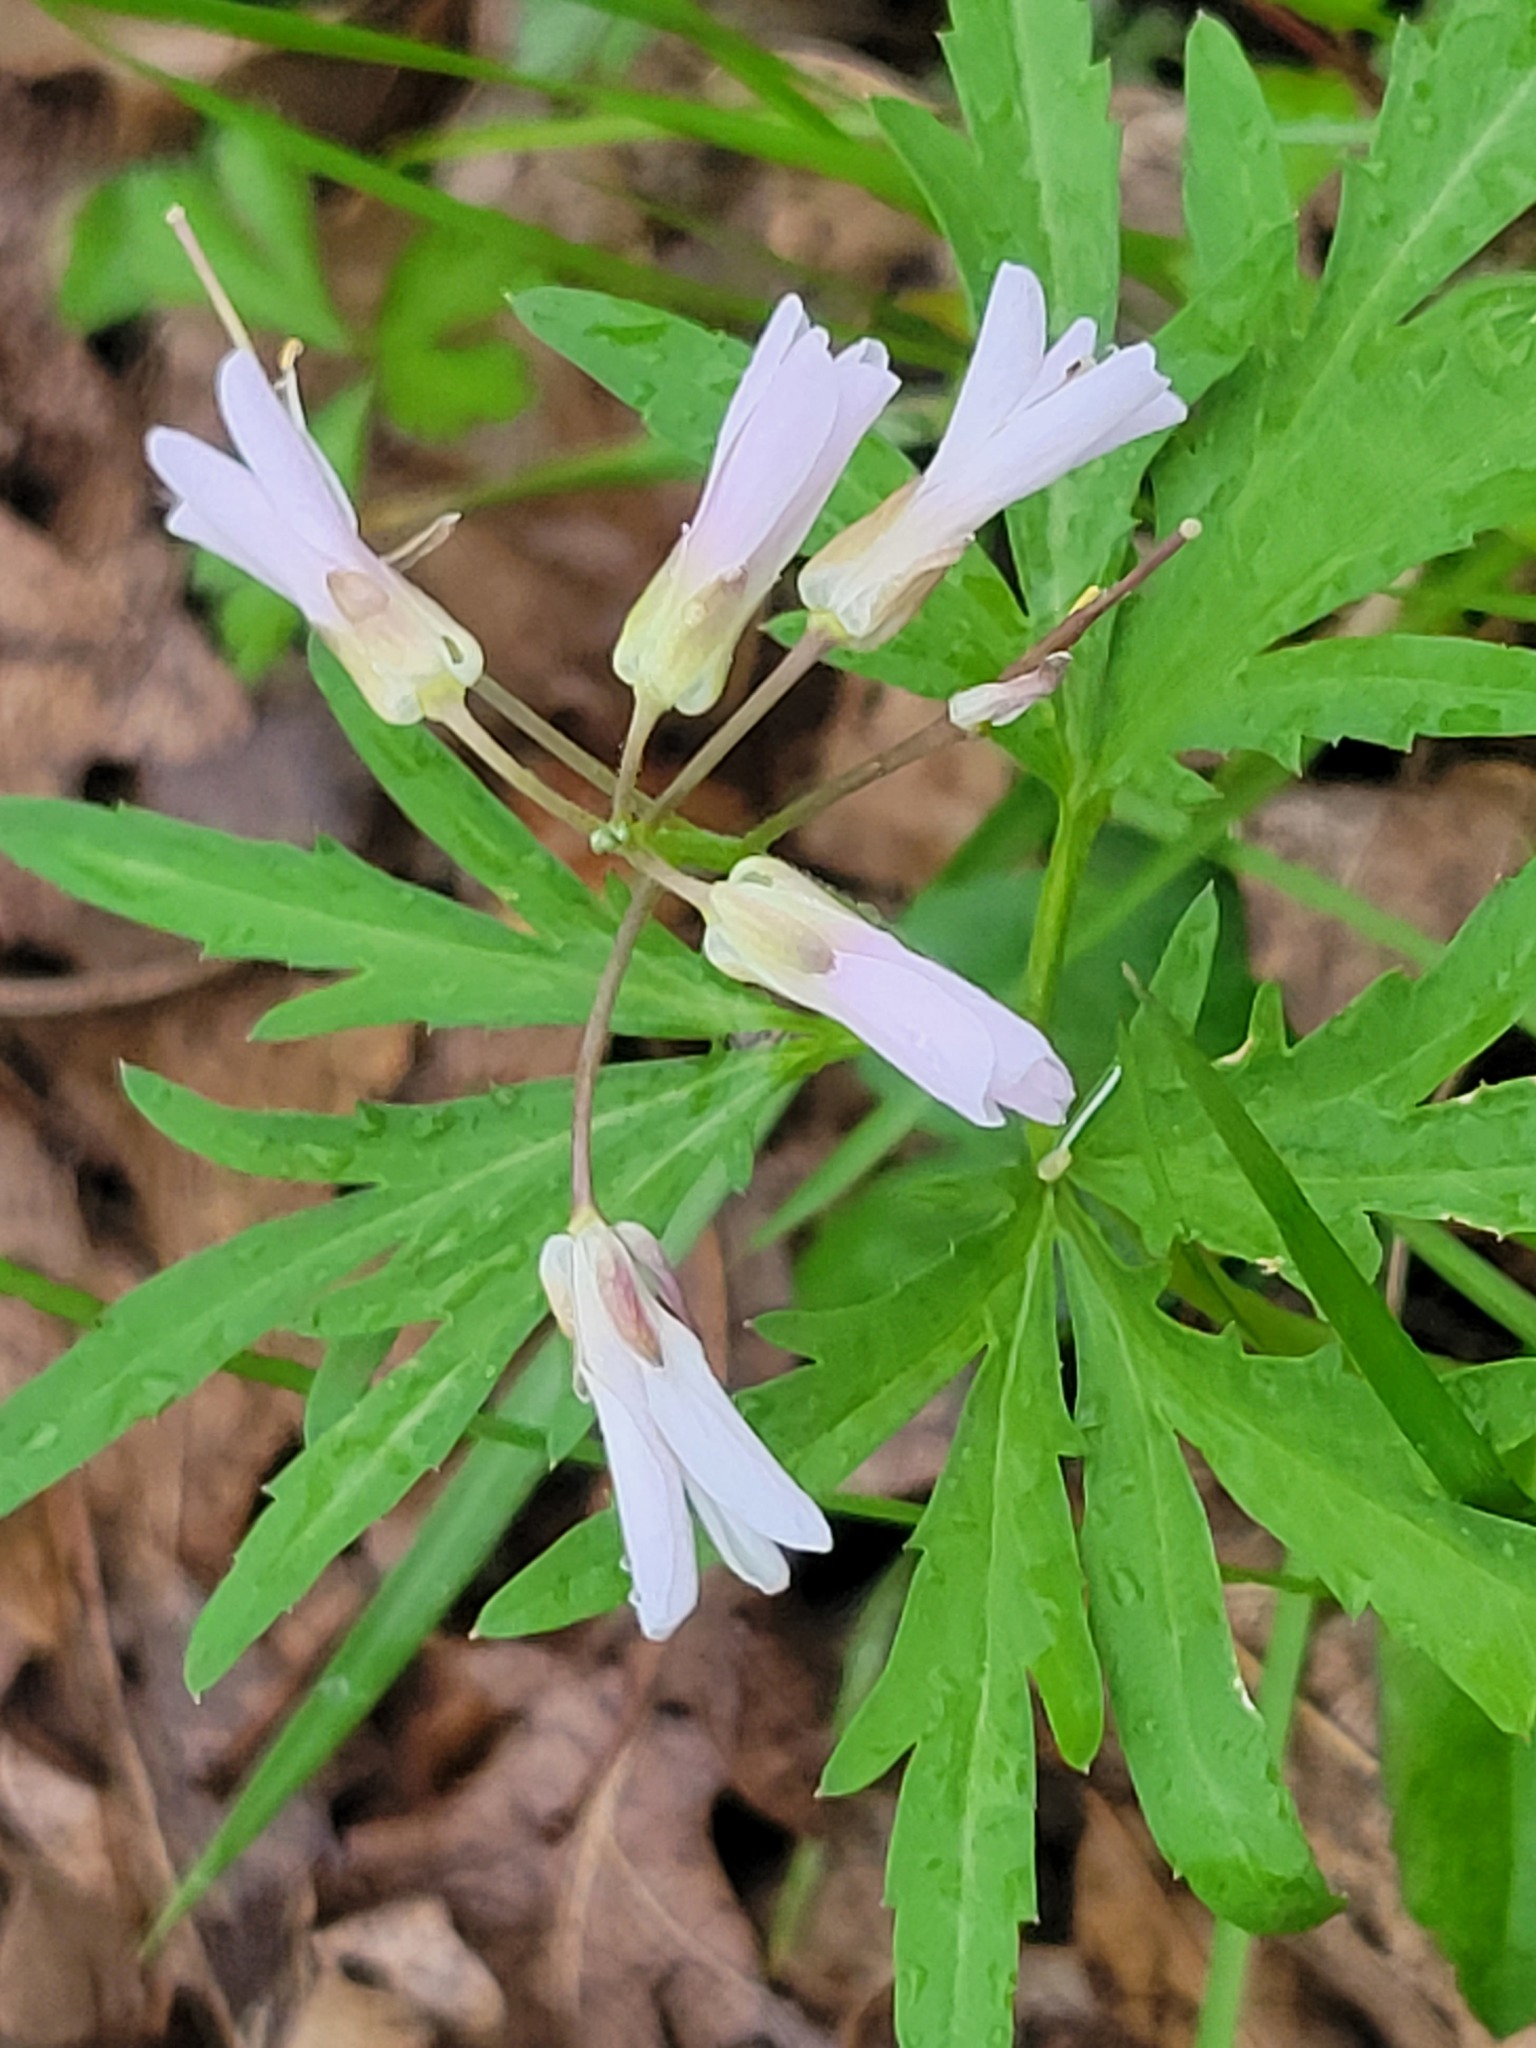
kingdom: Plantae
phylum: Tracheophyta
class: Magnoliopsida
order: Brassicales
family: Brassicaceae
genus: Cardamine
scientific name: Cardamine concatenata
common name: Cut-leaf toothcup
